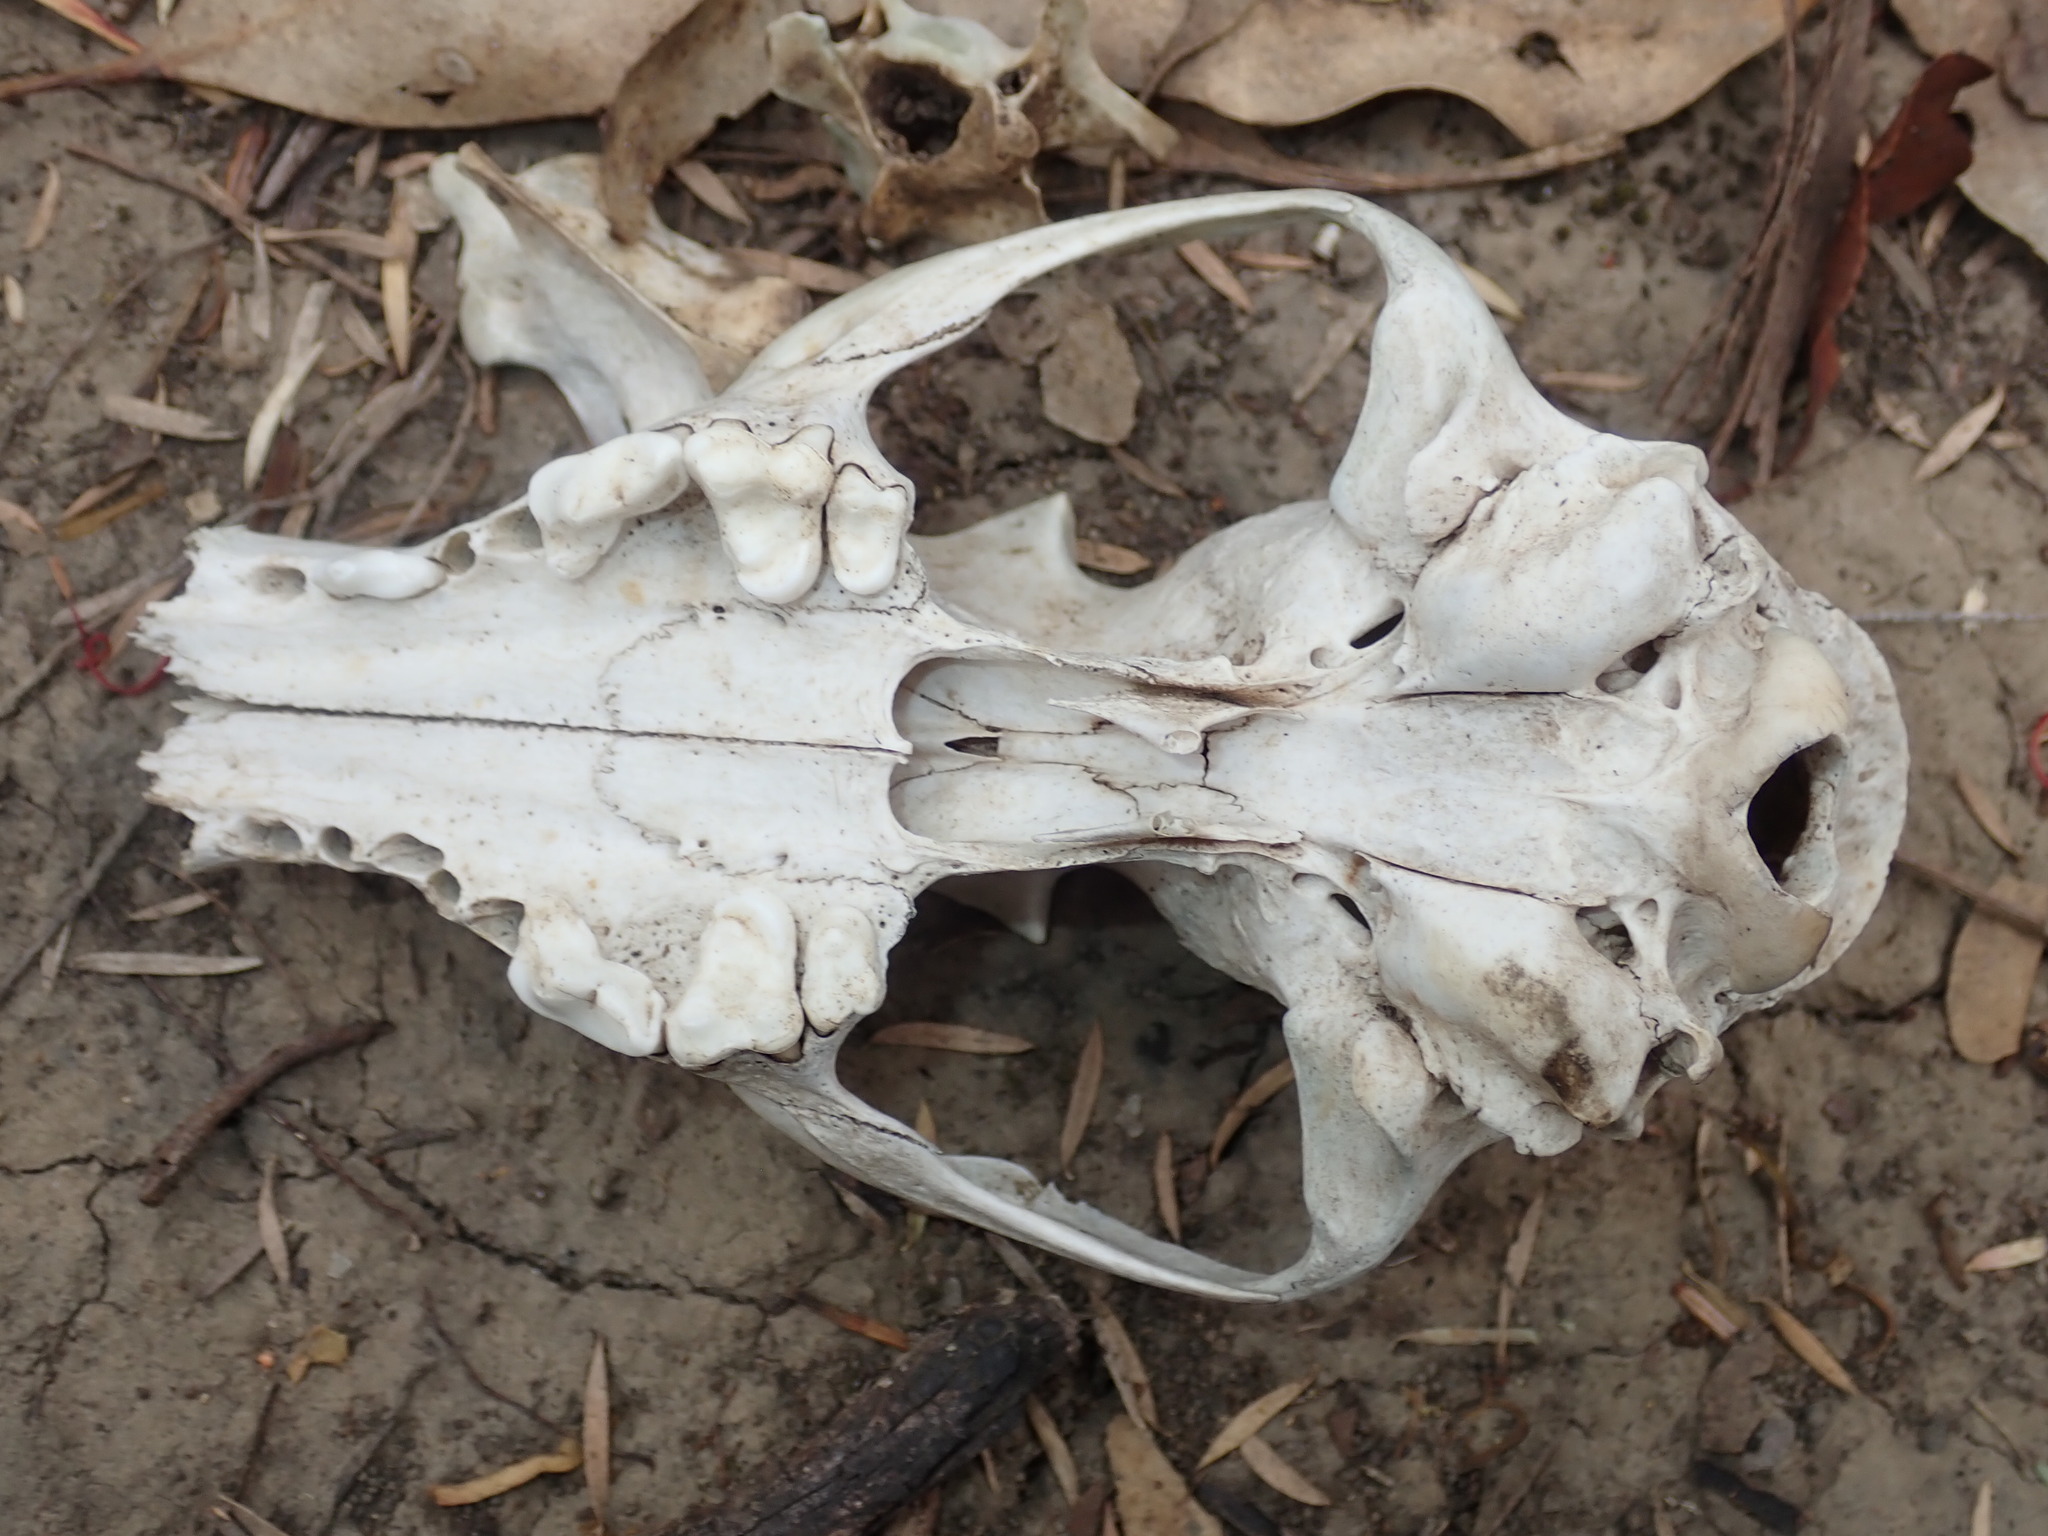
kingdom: Animalia
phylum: Chordata
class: Mammalia
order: Carnivora
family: Canidae
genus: Vulpes
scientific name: Vulpes vulpes
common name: Red fox
